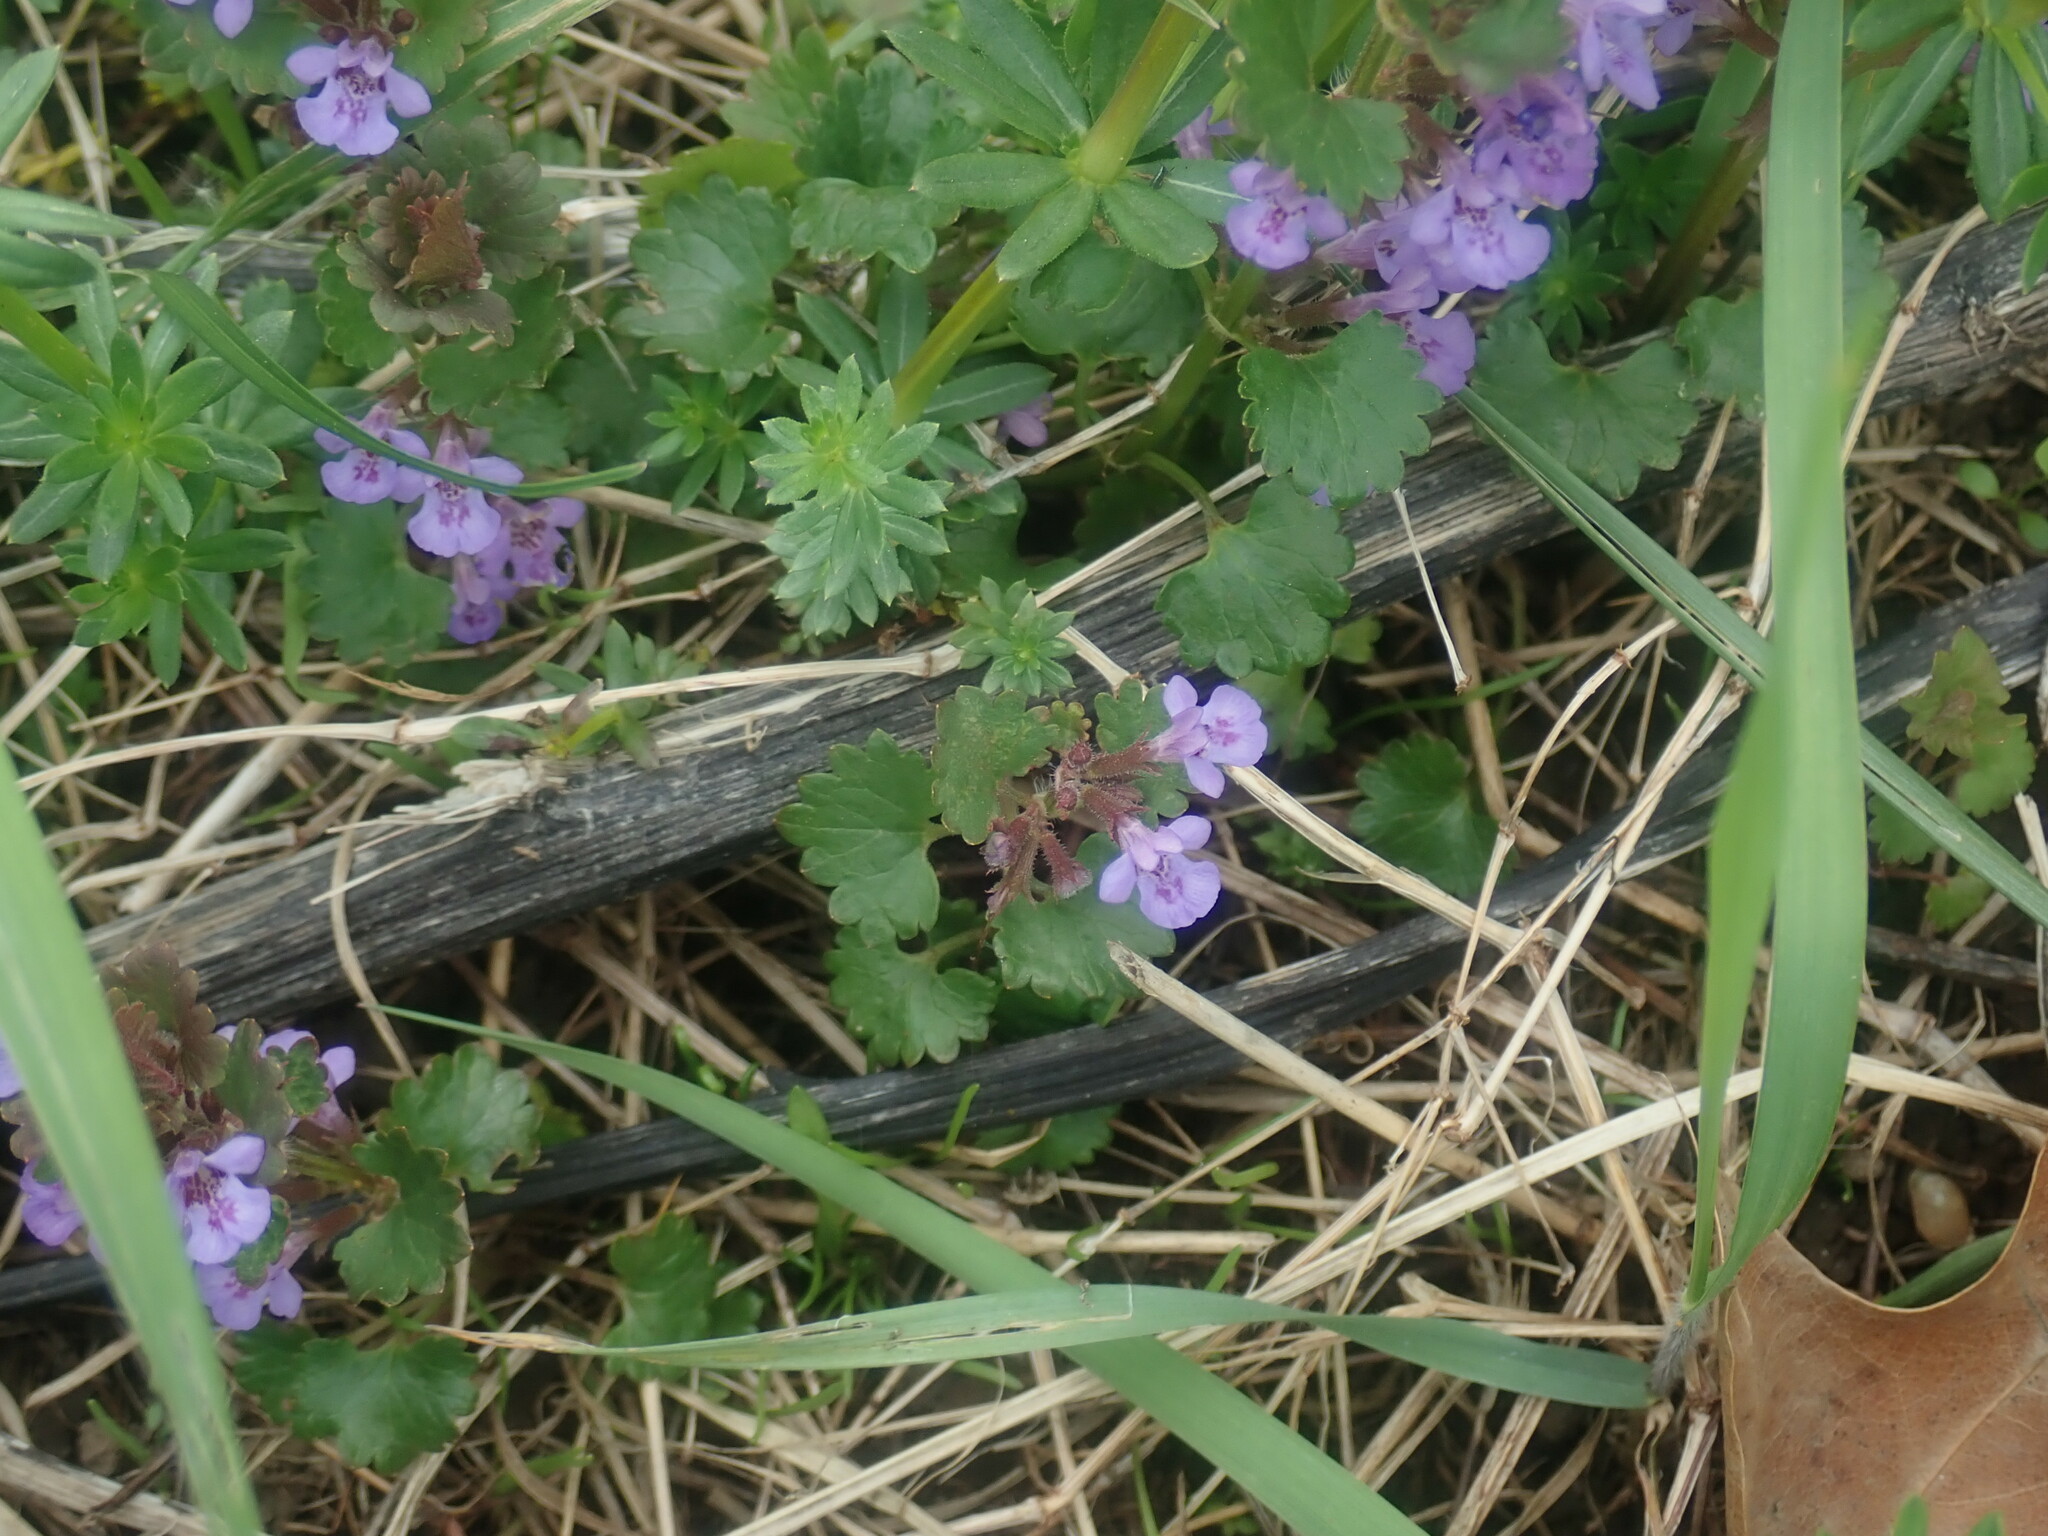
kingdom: Plantae
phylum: Tracheophyta
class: Magnoliopsida
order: Lamiales
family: Lamiaceae
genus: Glechoma
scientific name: Glechoma hederacea
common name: Ground ivy
